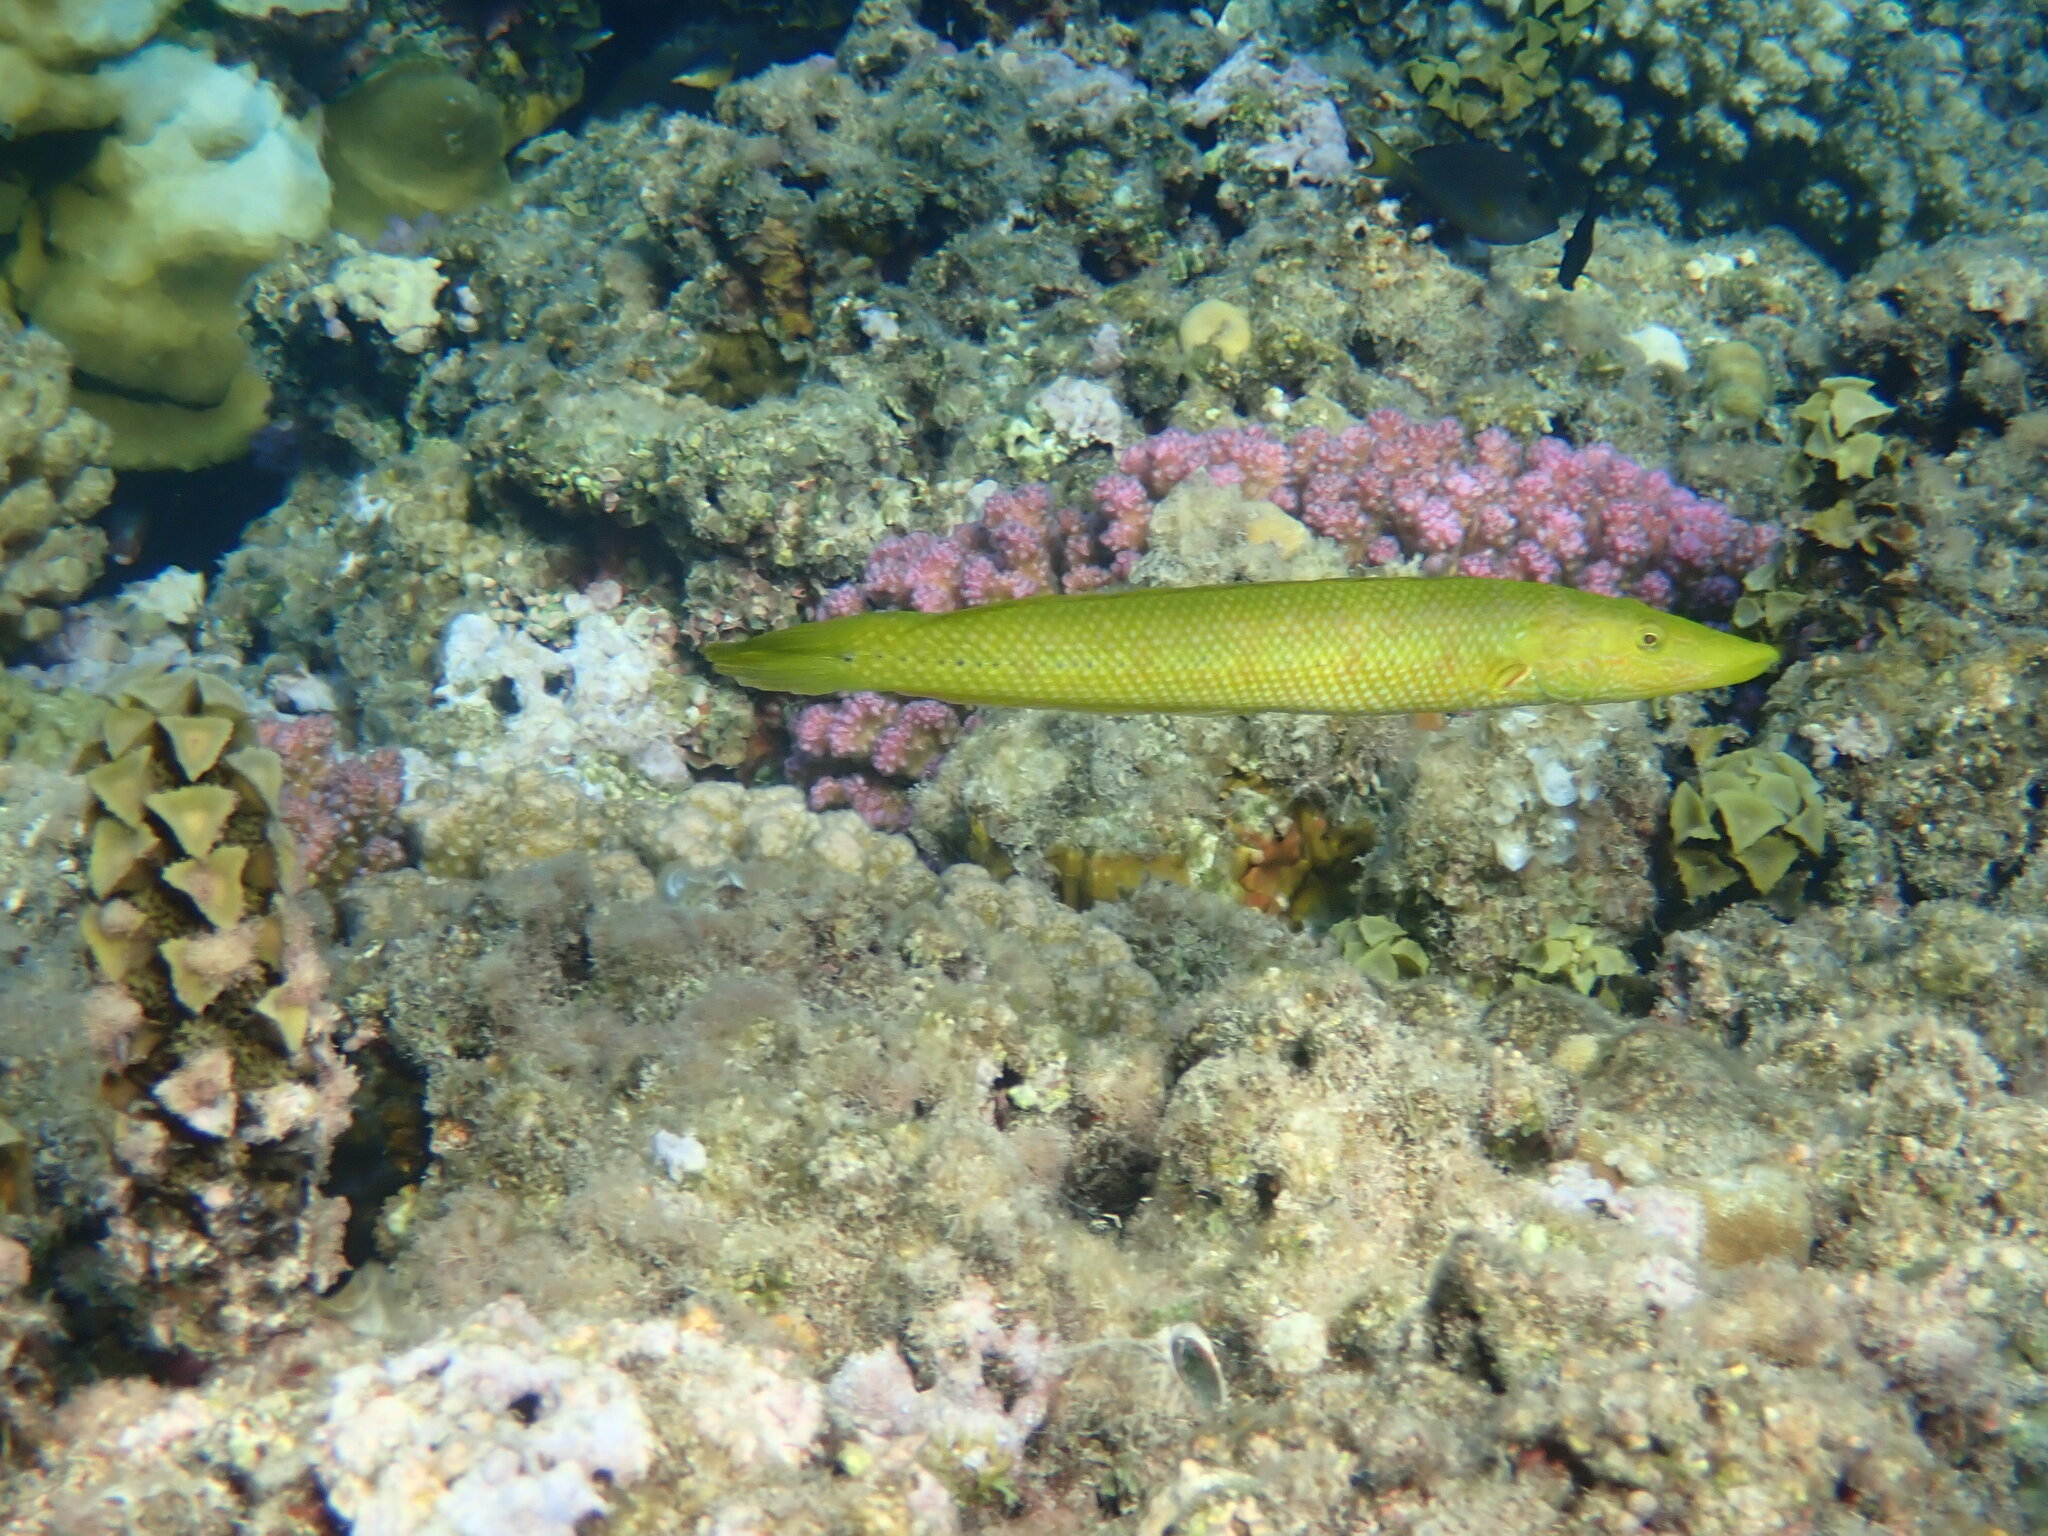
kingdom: Animalia
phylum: Chordata
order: Perciformes
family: Labridae
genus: Cheilio
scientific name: Cheilio inermis
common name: Cigar wrasse
